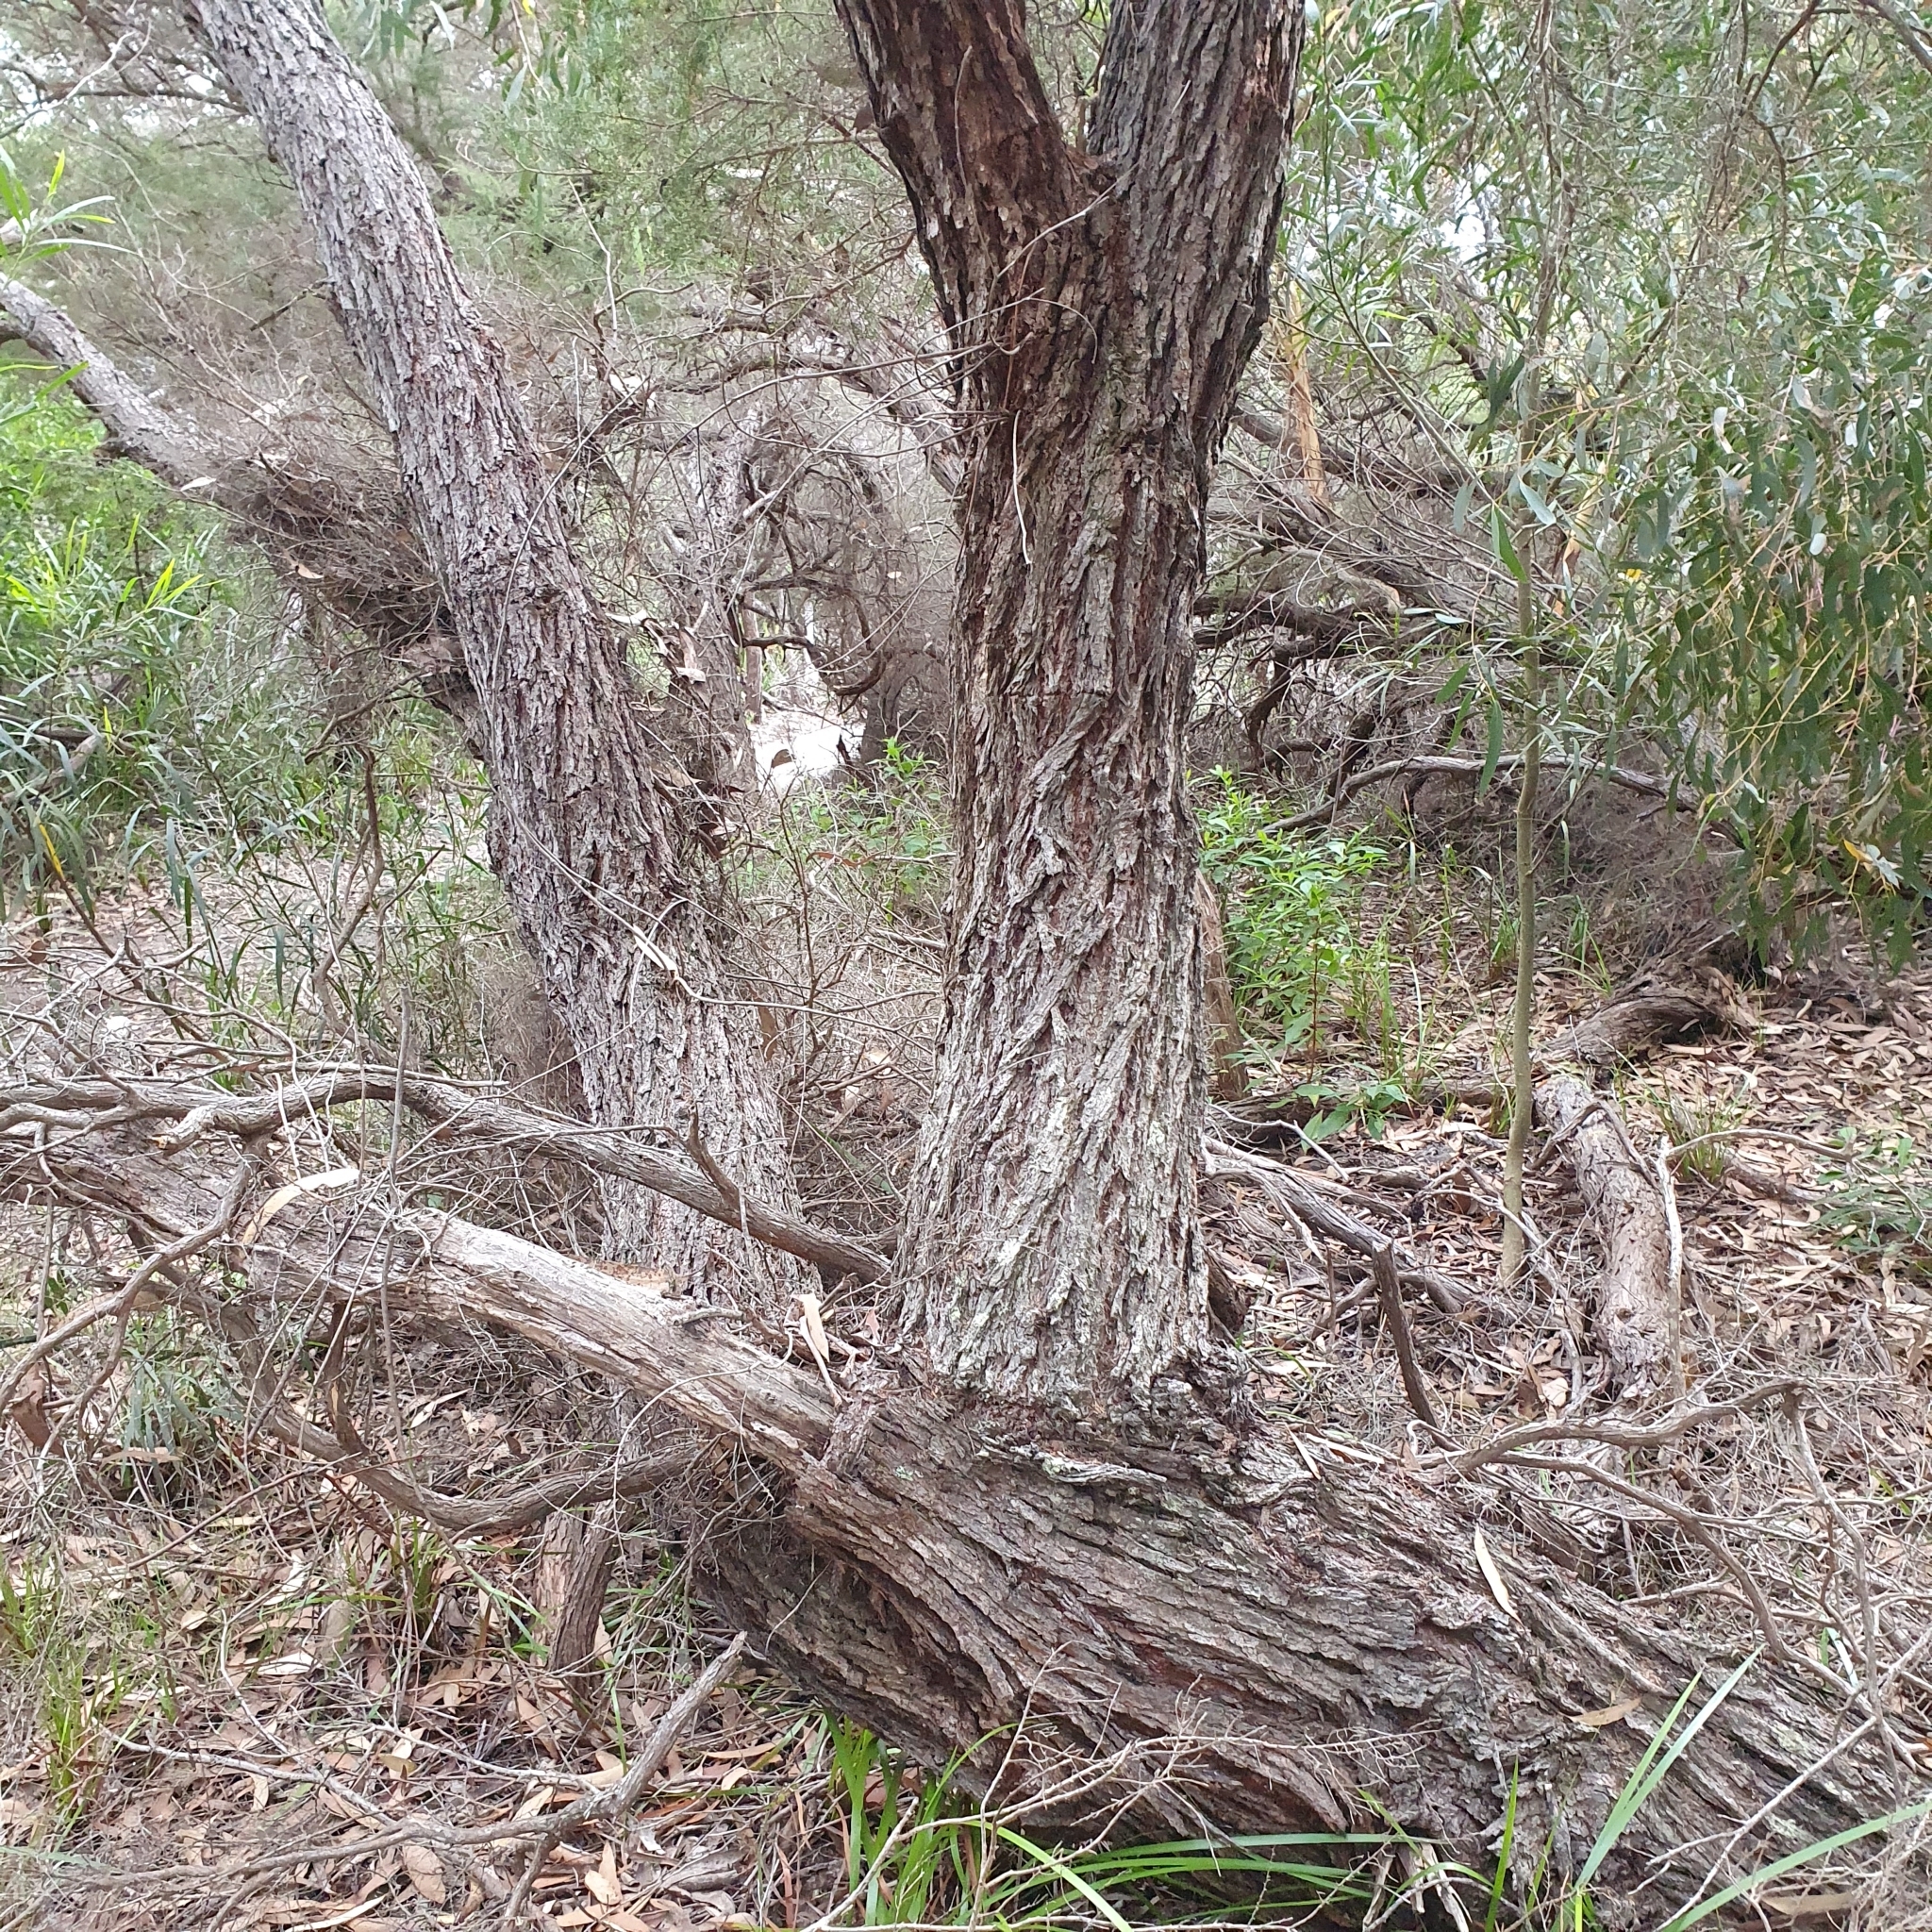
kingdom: Plantae
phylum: Tracheophyta
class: Magnoliopsida
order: Myrtales
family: Myrtaceae
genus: Eucalyptus
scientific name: Eucalyptus sieberi
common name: Black-ash
